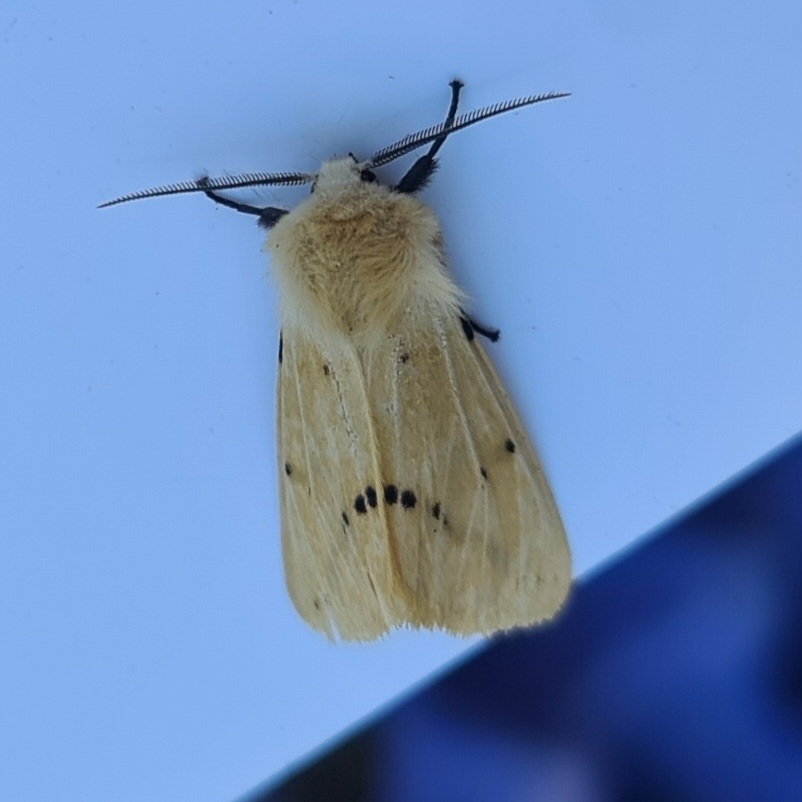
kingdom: Animalia
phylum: Arthropoda
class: Insecta
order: Lepidoptera
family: Erebidae
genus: Spilarctia
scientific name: Spilarctia lutea
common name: Buff ermine
